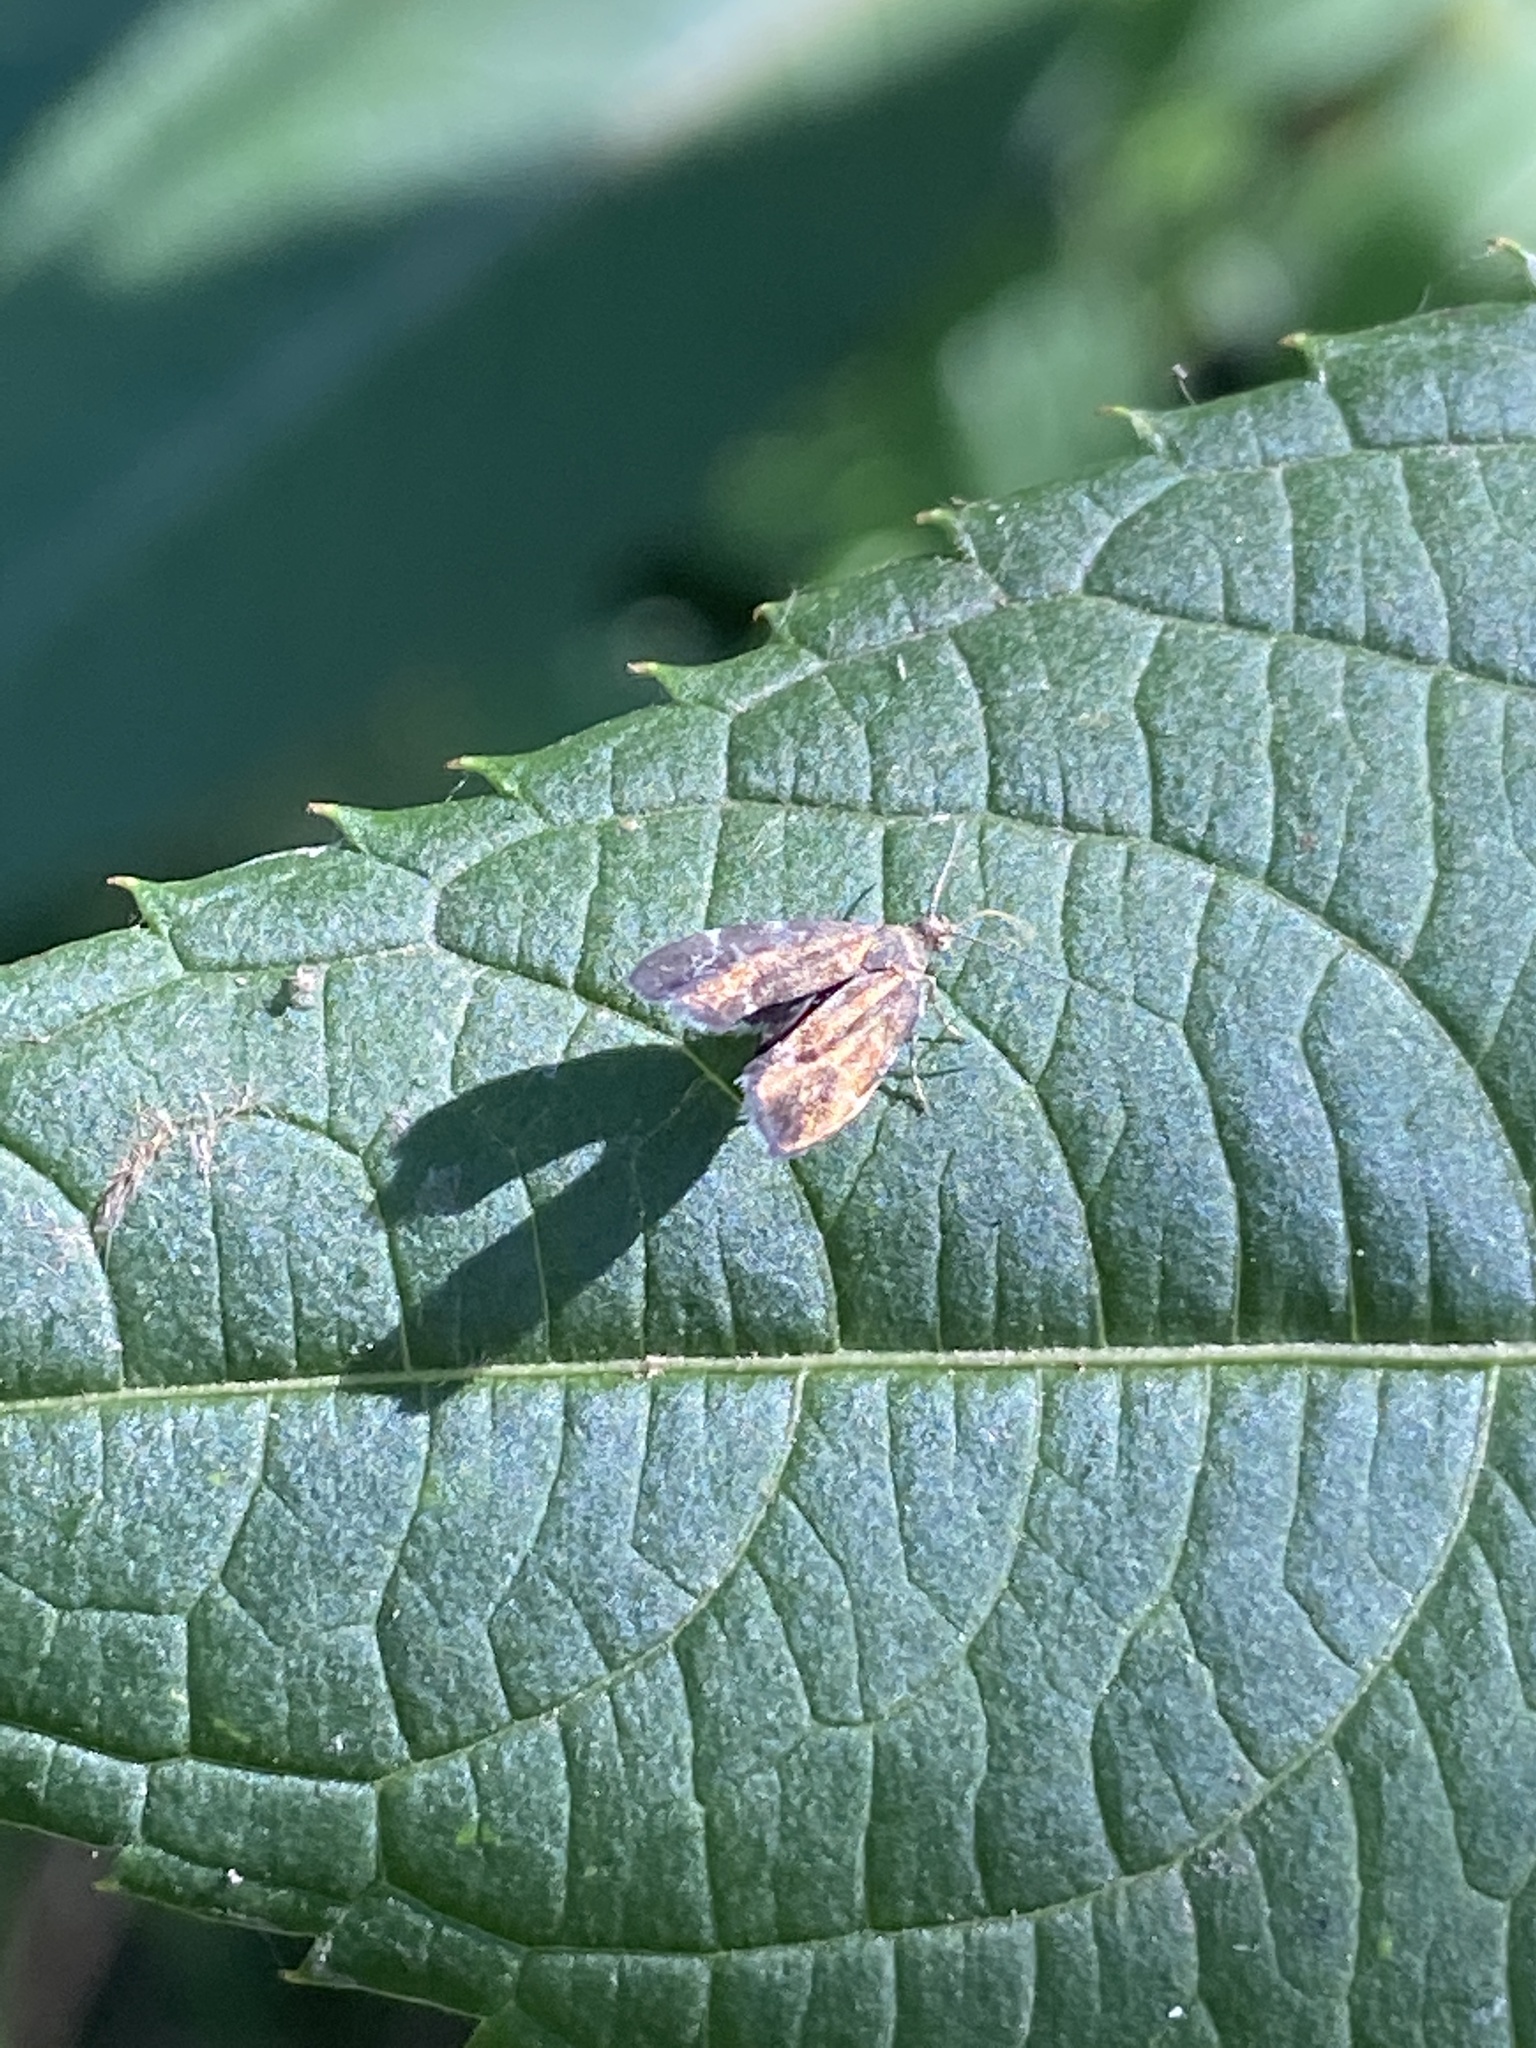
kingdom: Animalia
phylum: Arthropoda
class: Insecta
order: Lepidoptera
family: Choreutidae
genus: Anthophila
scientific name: Anthophila fabriciana
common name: Nettle-tap
